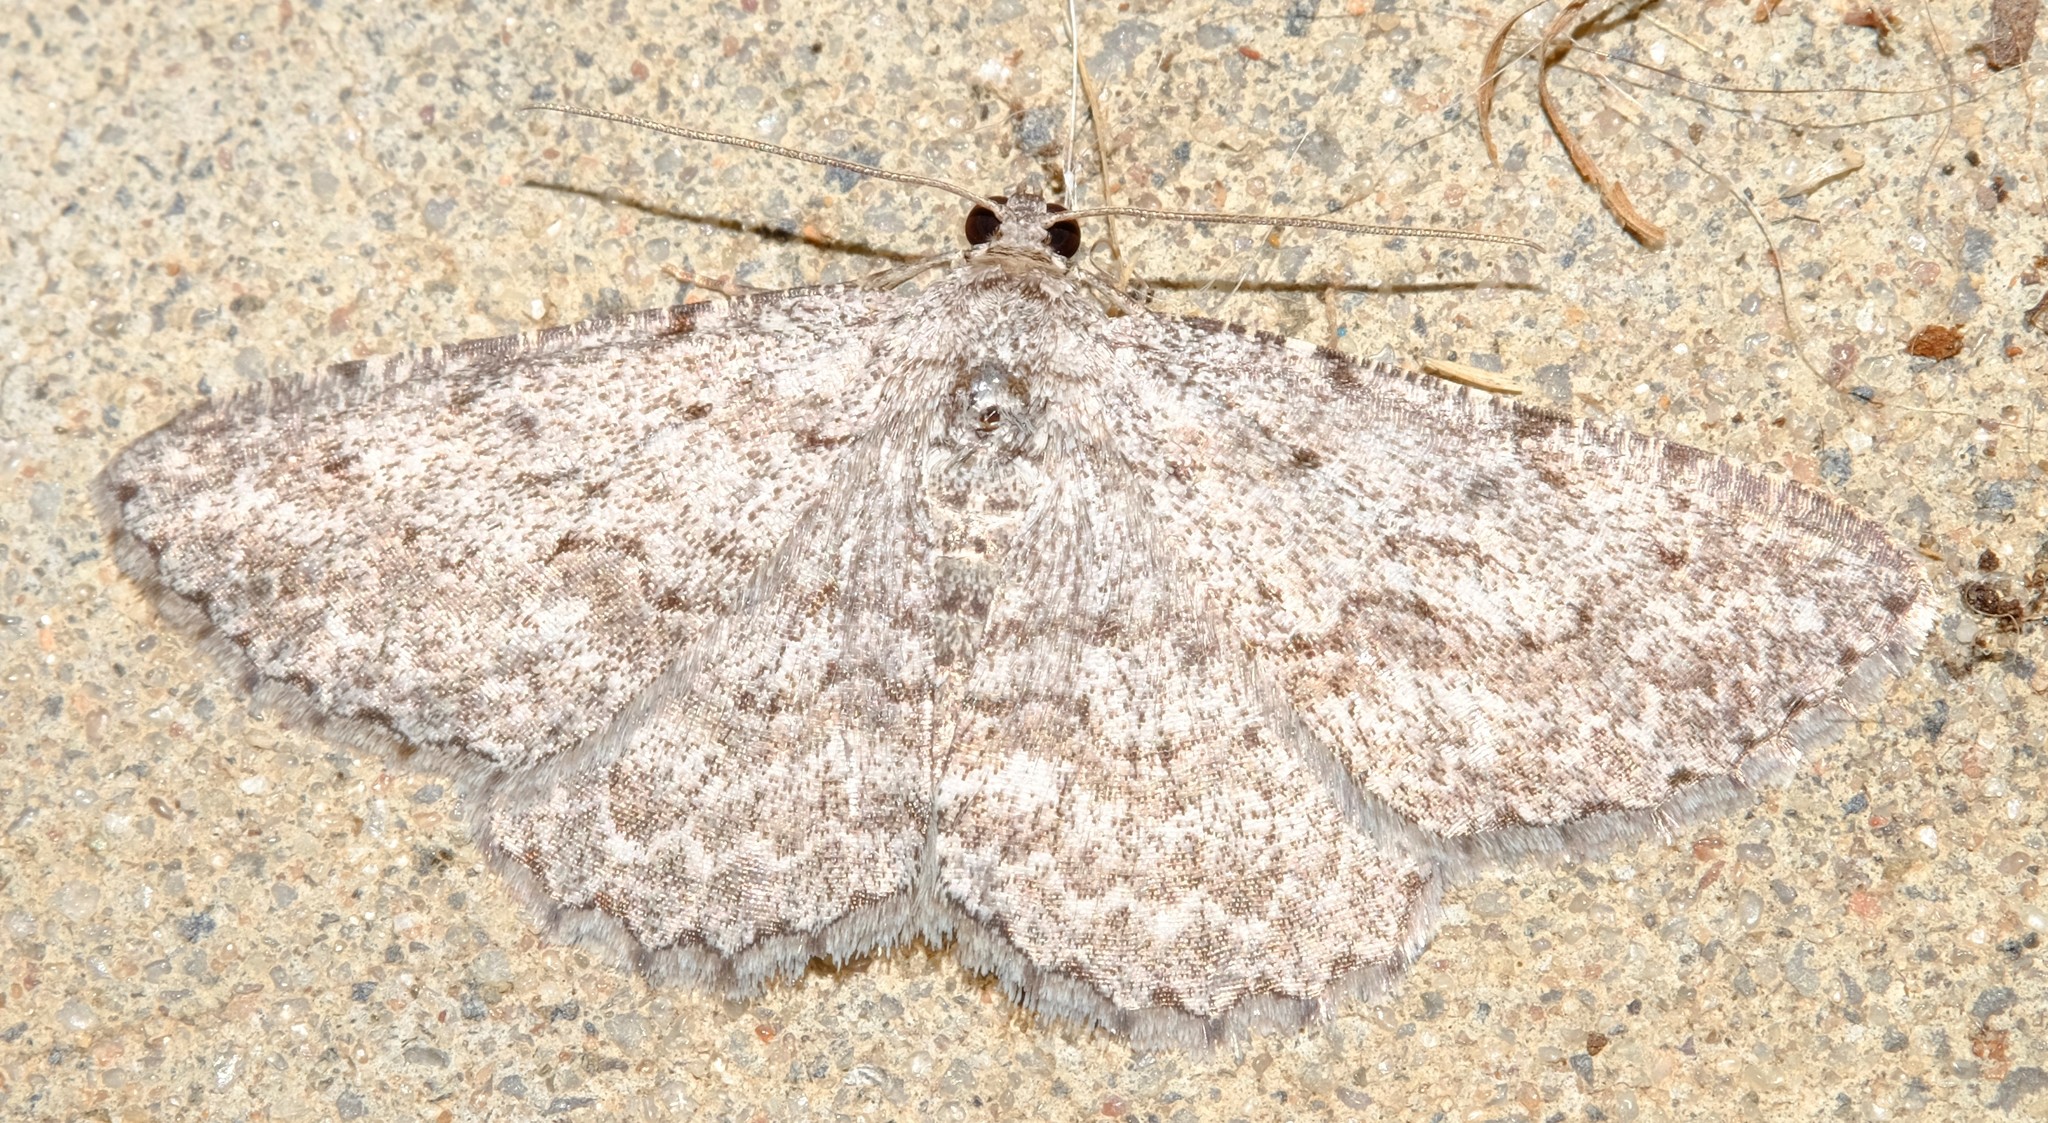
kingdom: Animalia
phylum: Arthropoda
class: Insecta
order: Lepidoptera
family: Geometridae
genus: Psilosticha
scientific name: Psilosticha absorpta
